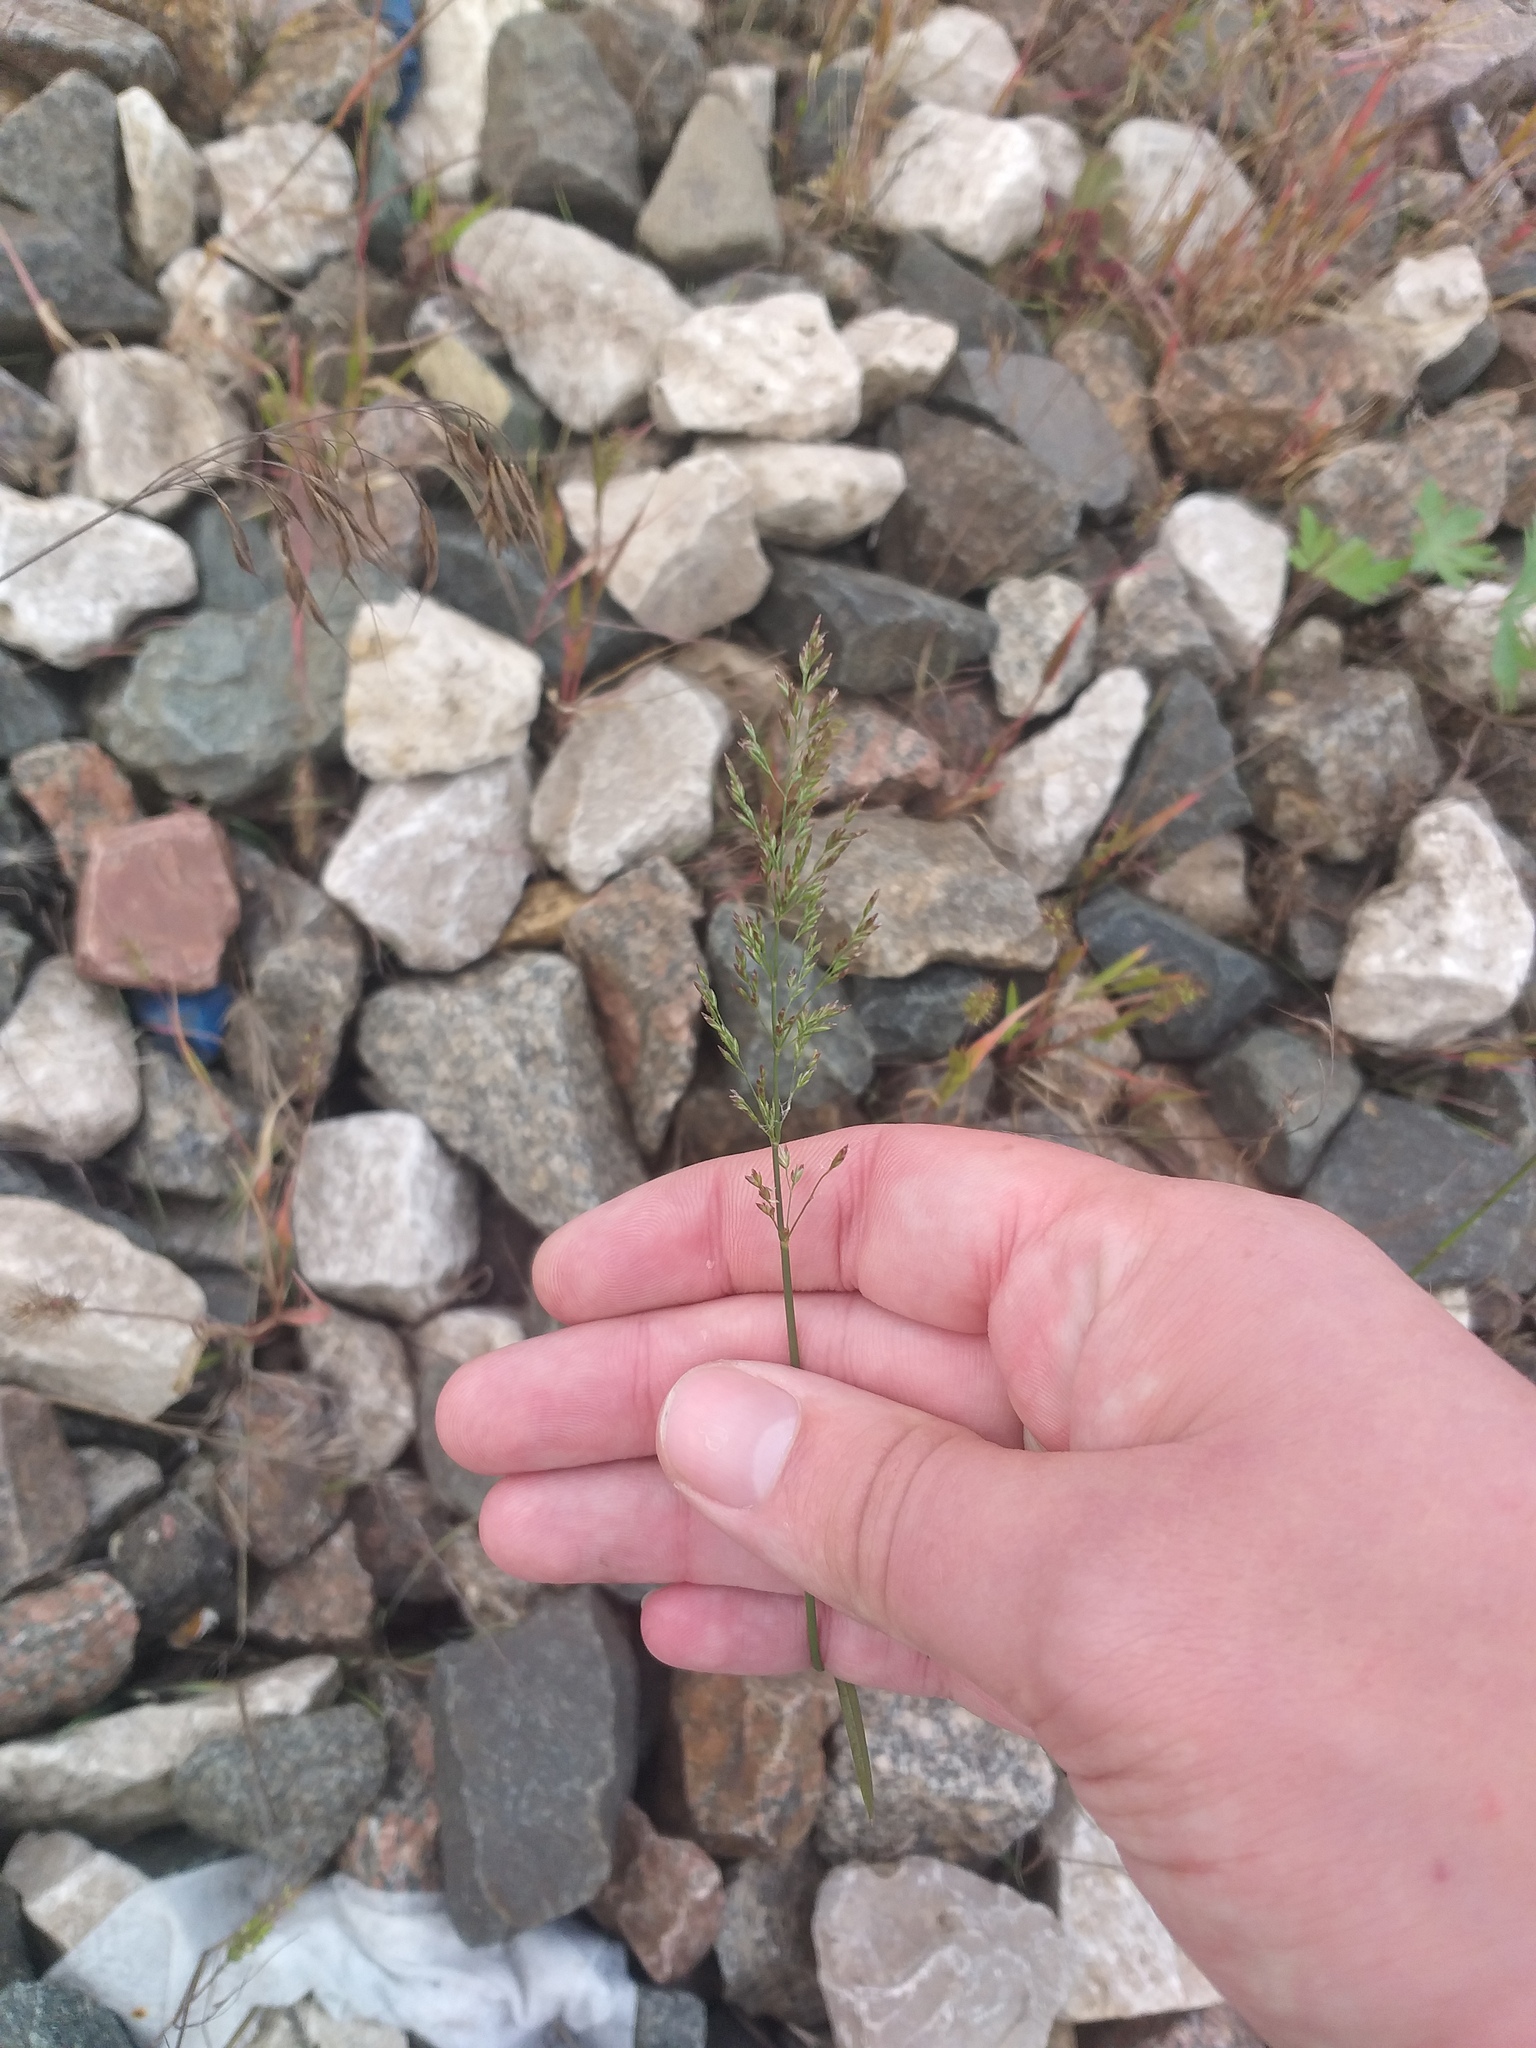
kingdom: Plantae
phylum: Tracheophyta
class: Liliopsida
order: Poales
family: Poaceae
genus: Poa
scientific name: Poa compressa
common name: Canada bluegrass
